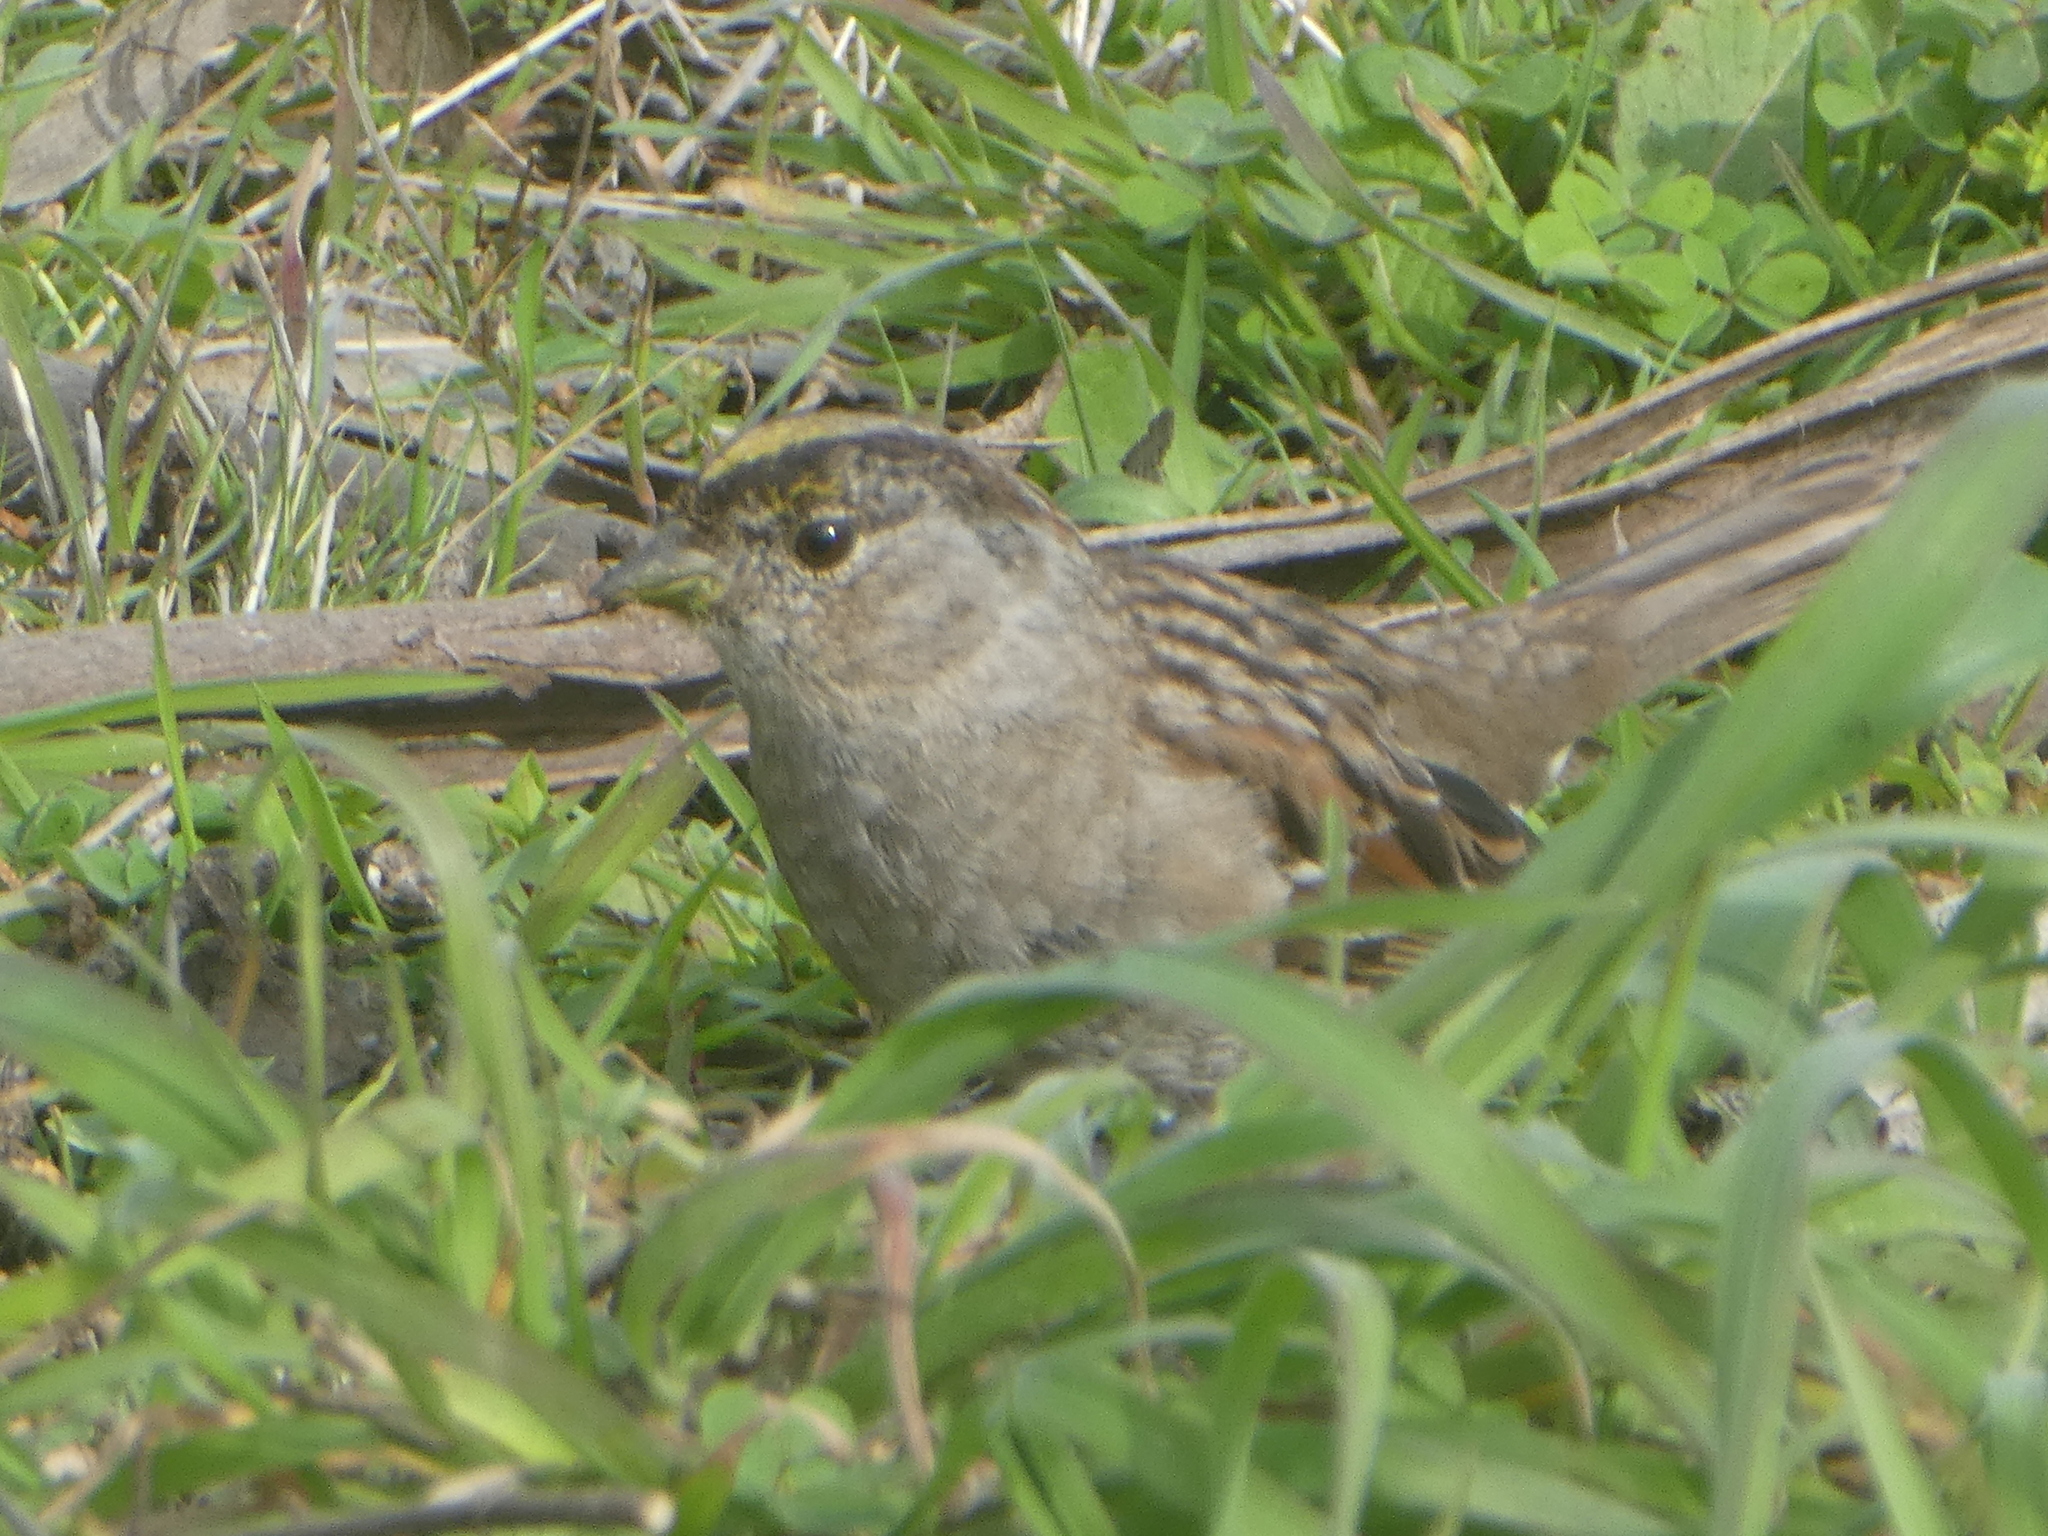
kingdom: Animalia
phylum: Chordata
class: Aves
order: Passeriformes
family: Passerellidae
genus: Zonotrichia
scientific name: Zonotrichia atricapilla
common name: Golden-crowned sparrow
